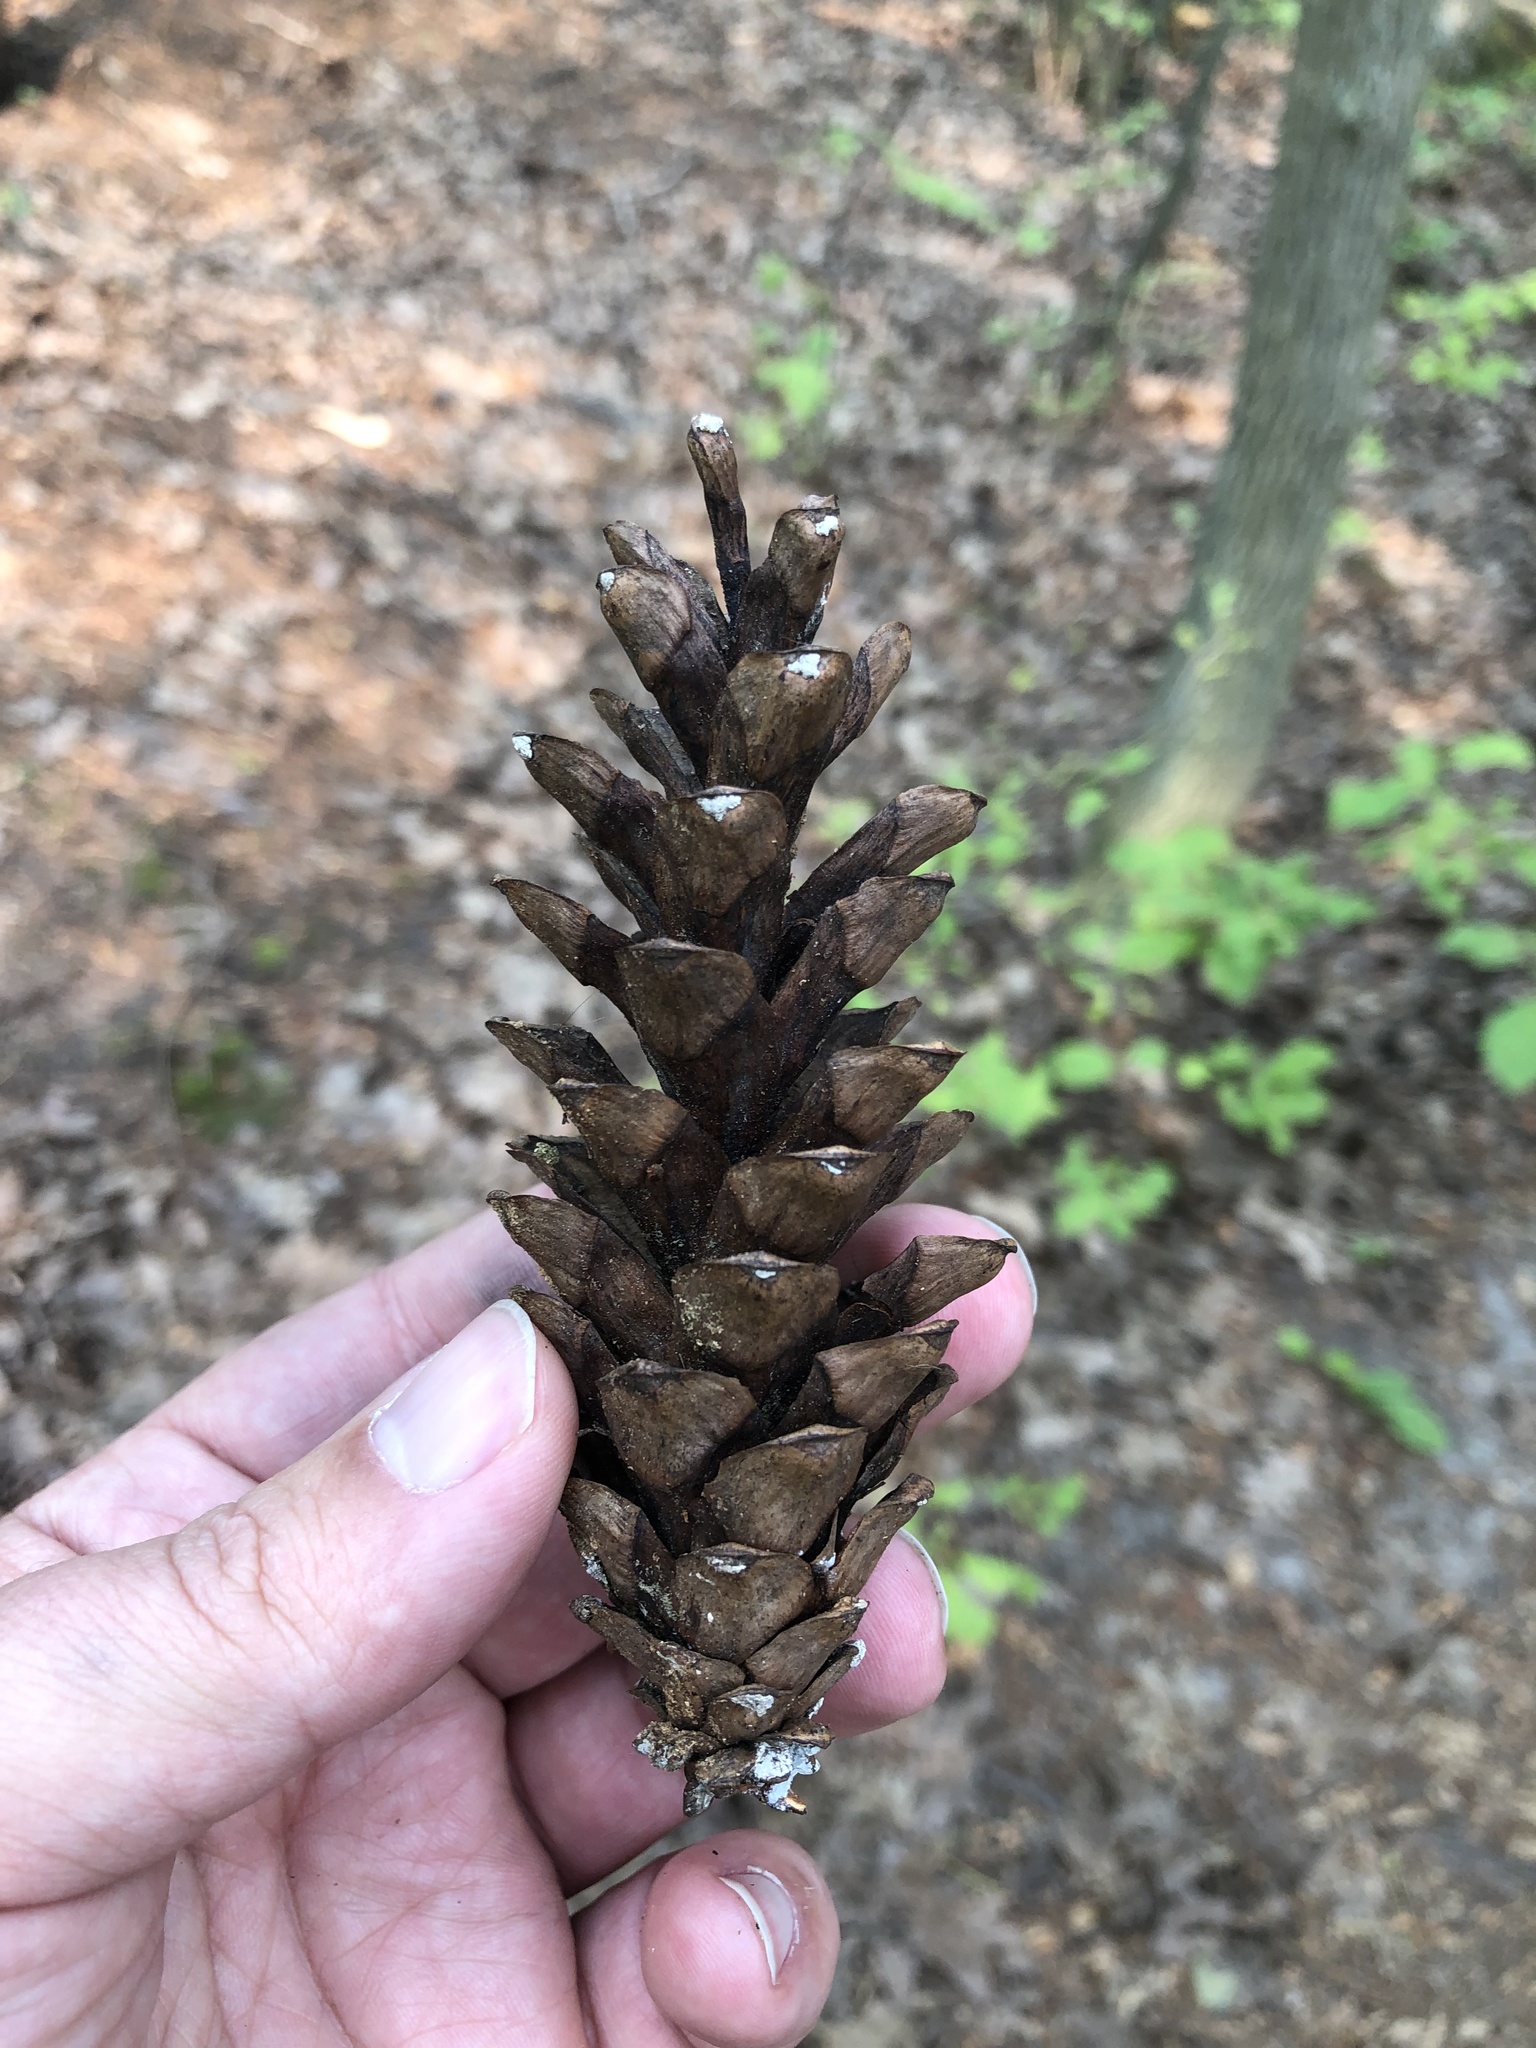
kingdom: Plantae
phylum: Tracheophyta
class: Pinopsida
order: Pinales
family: Pinaceae
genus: Pinus
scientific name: Pinus strobus
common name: Weymouth pine
